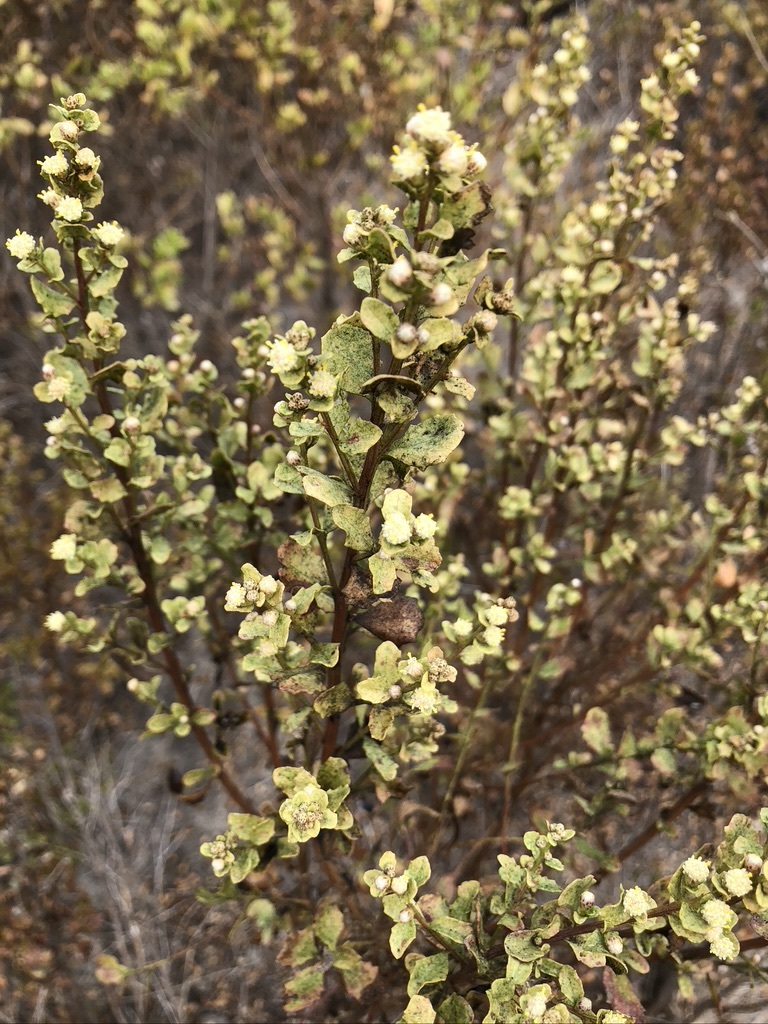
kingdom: Plantae
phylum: Tracheophyta
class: Magnoliopsida
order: Asterales
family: Asteraceae
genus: Baccharis
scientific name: Baccharis pilularis
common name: Coyotebrush
